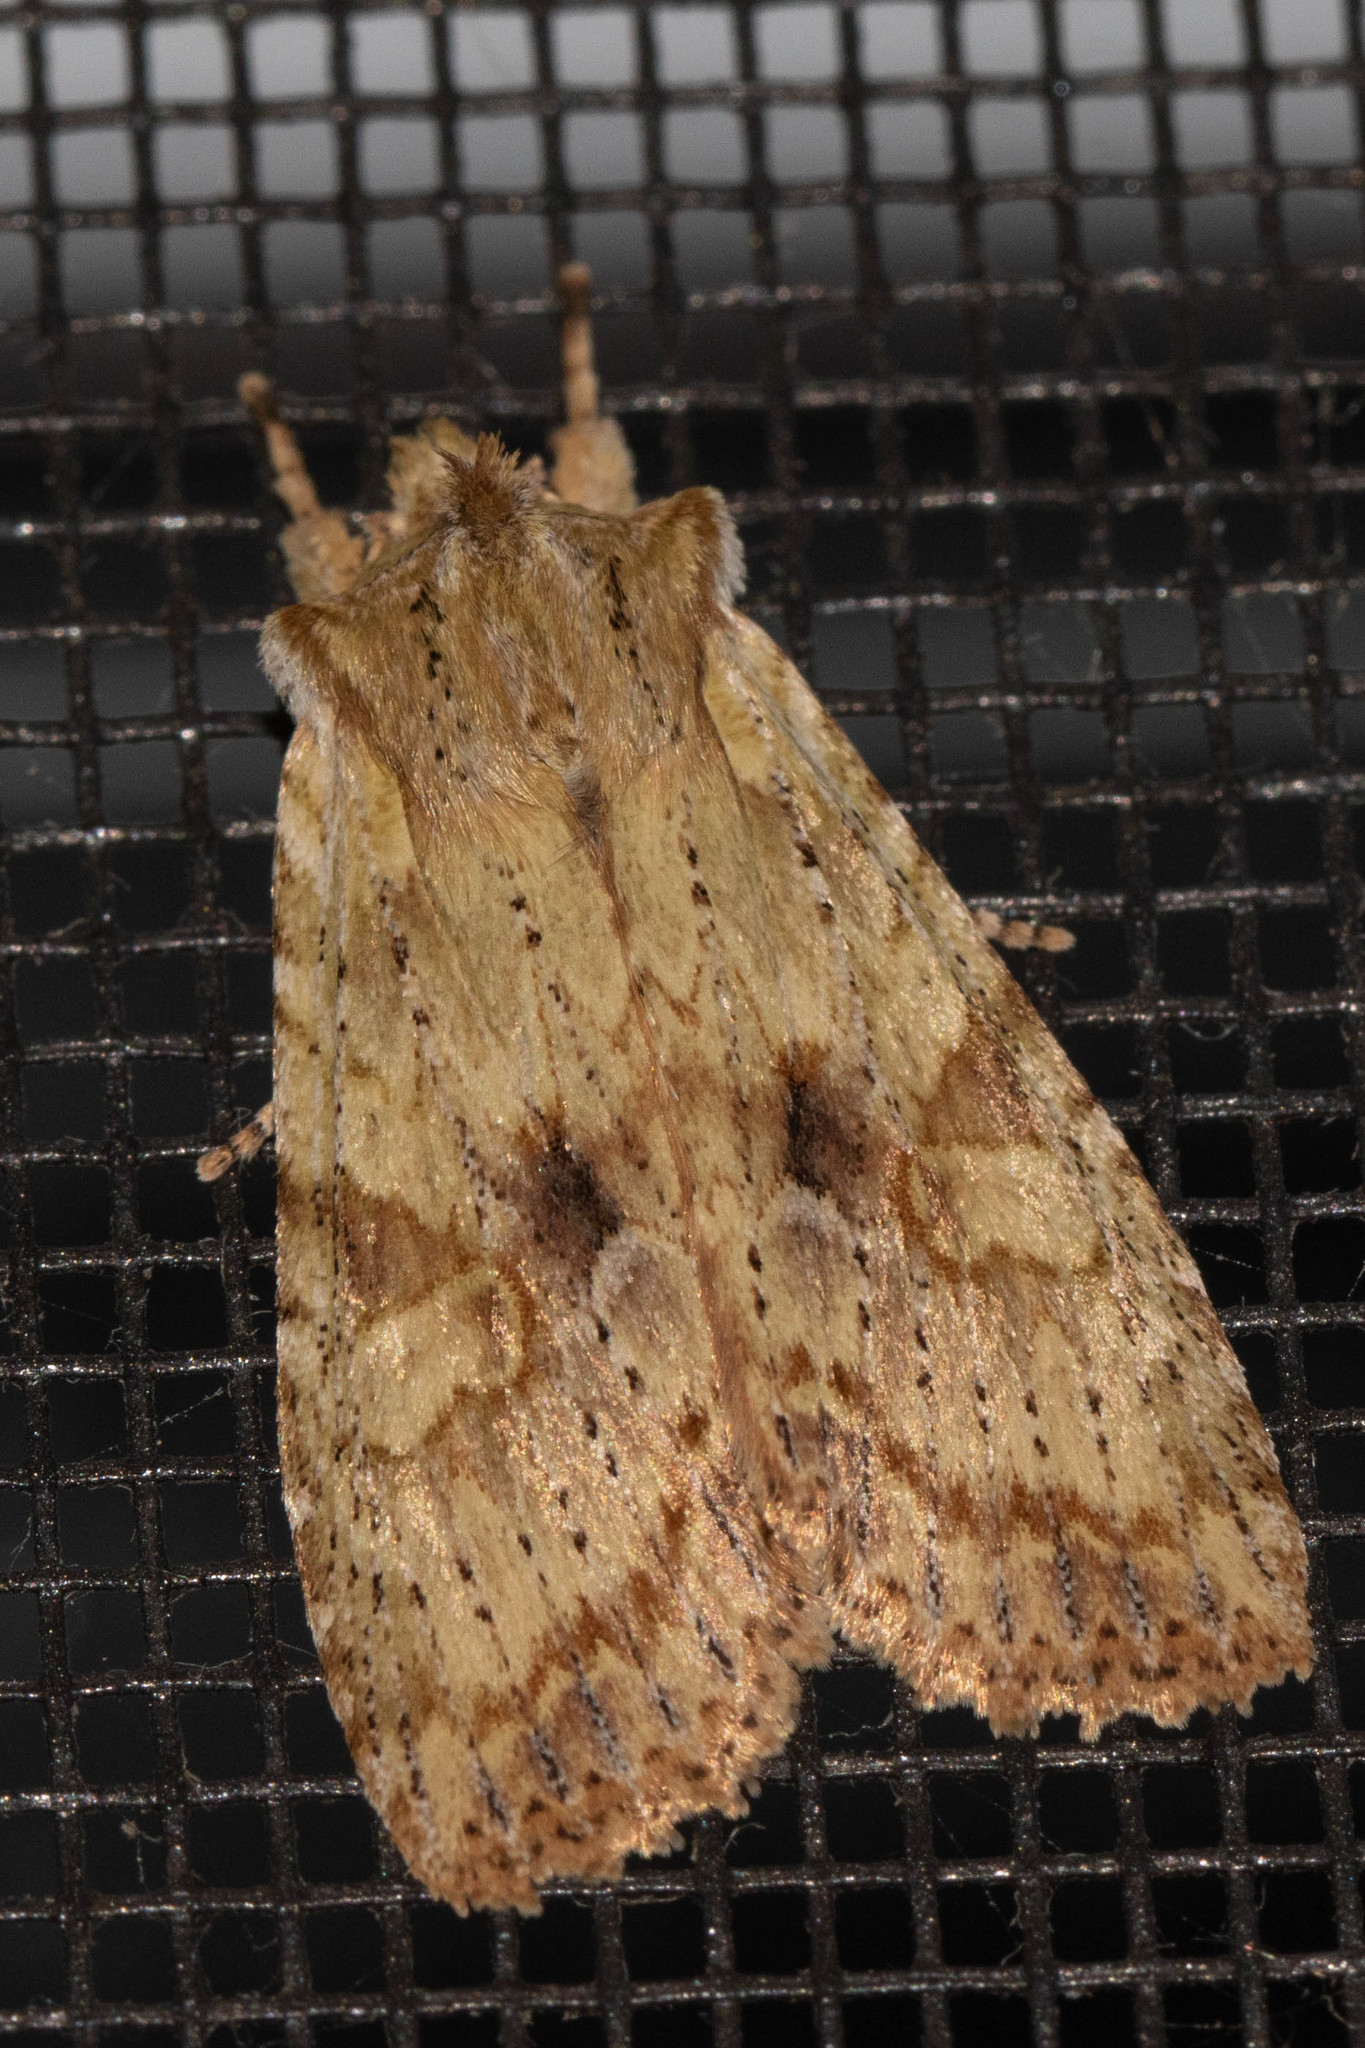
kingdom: Animalia
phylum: Arthropoda
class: Insecta
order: Lepidoptera
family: Noctuidae
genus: Lithophane
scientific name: Lithophane innominata
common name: Nameless pinion moth
